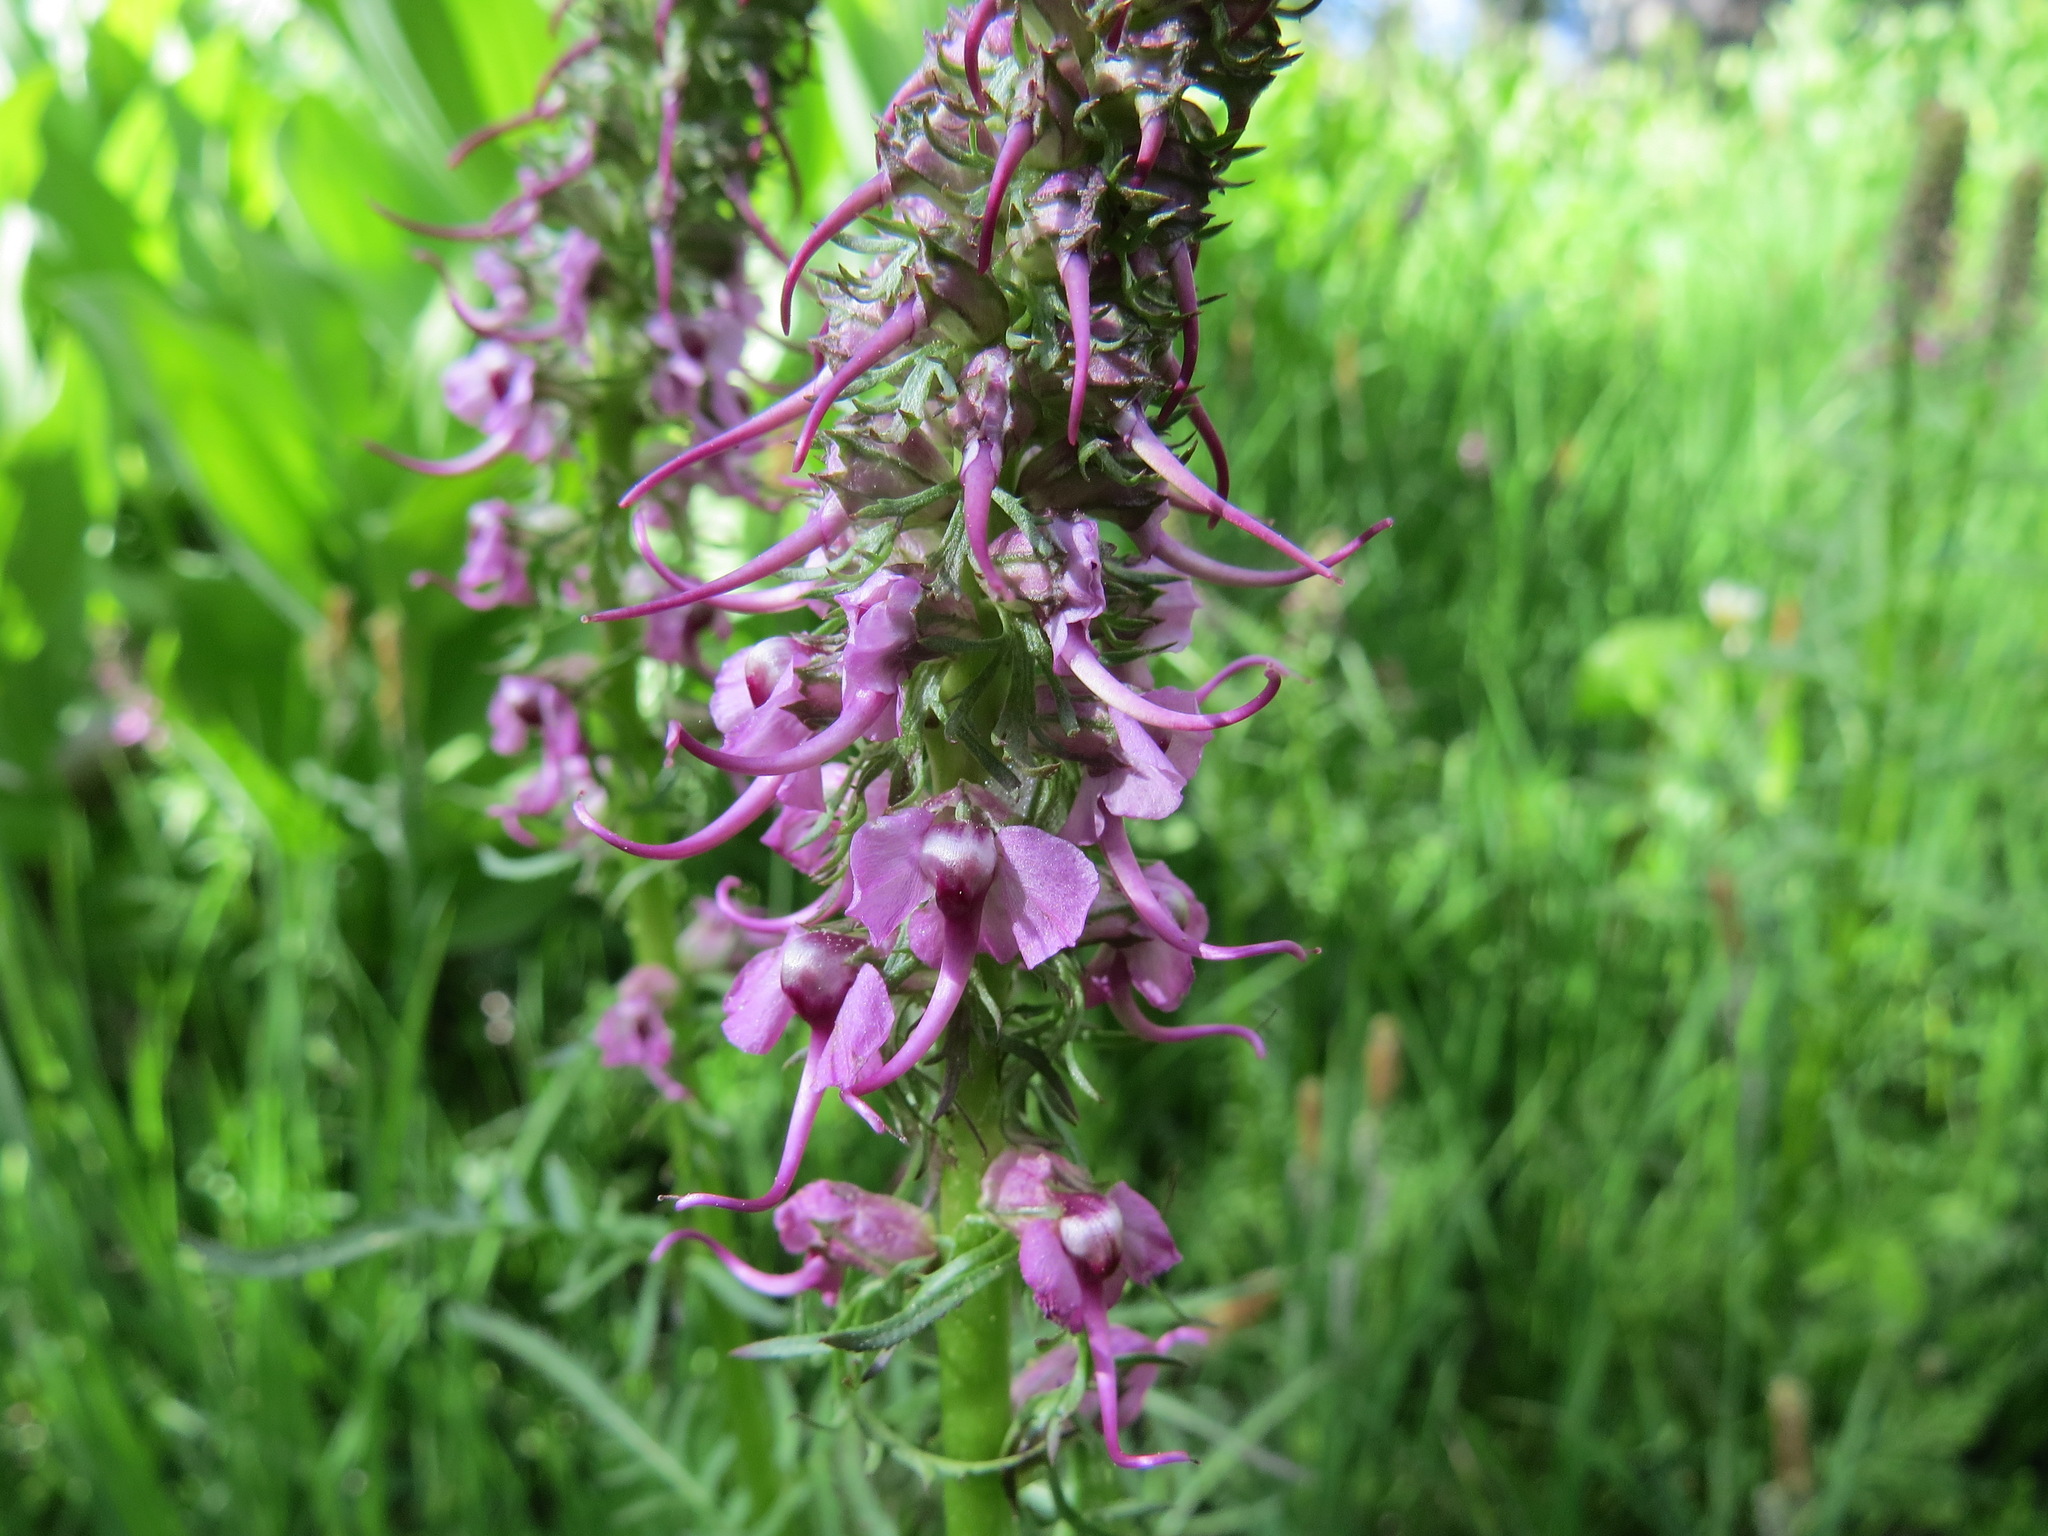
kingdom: Plantae
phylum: Tracheophyta
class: Magnoliopsida
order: Lamiales
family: Orobanchaceae
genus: Pedicularis
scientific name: Pedicularis groenlandica
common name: Elephant's-head
